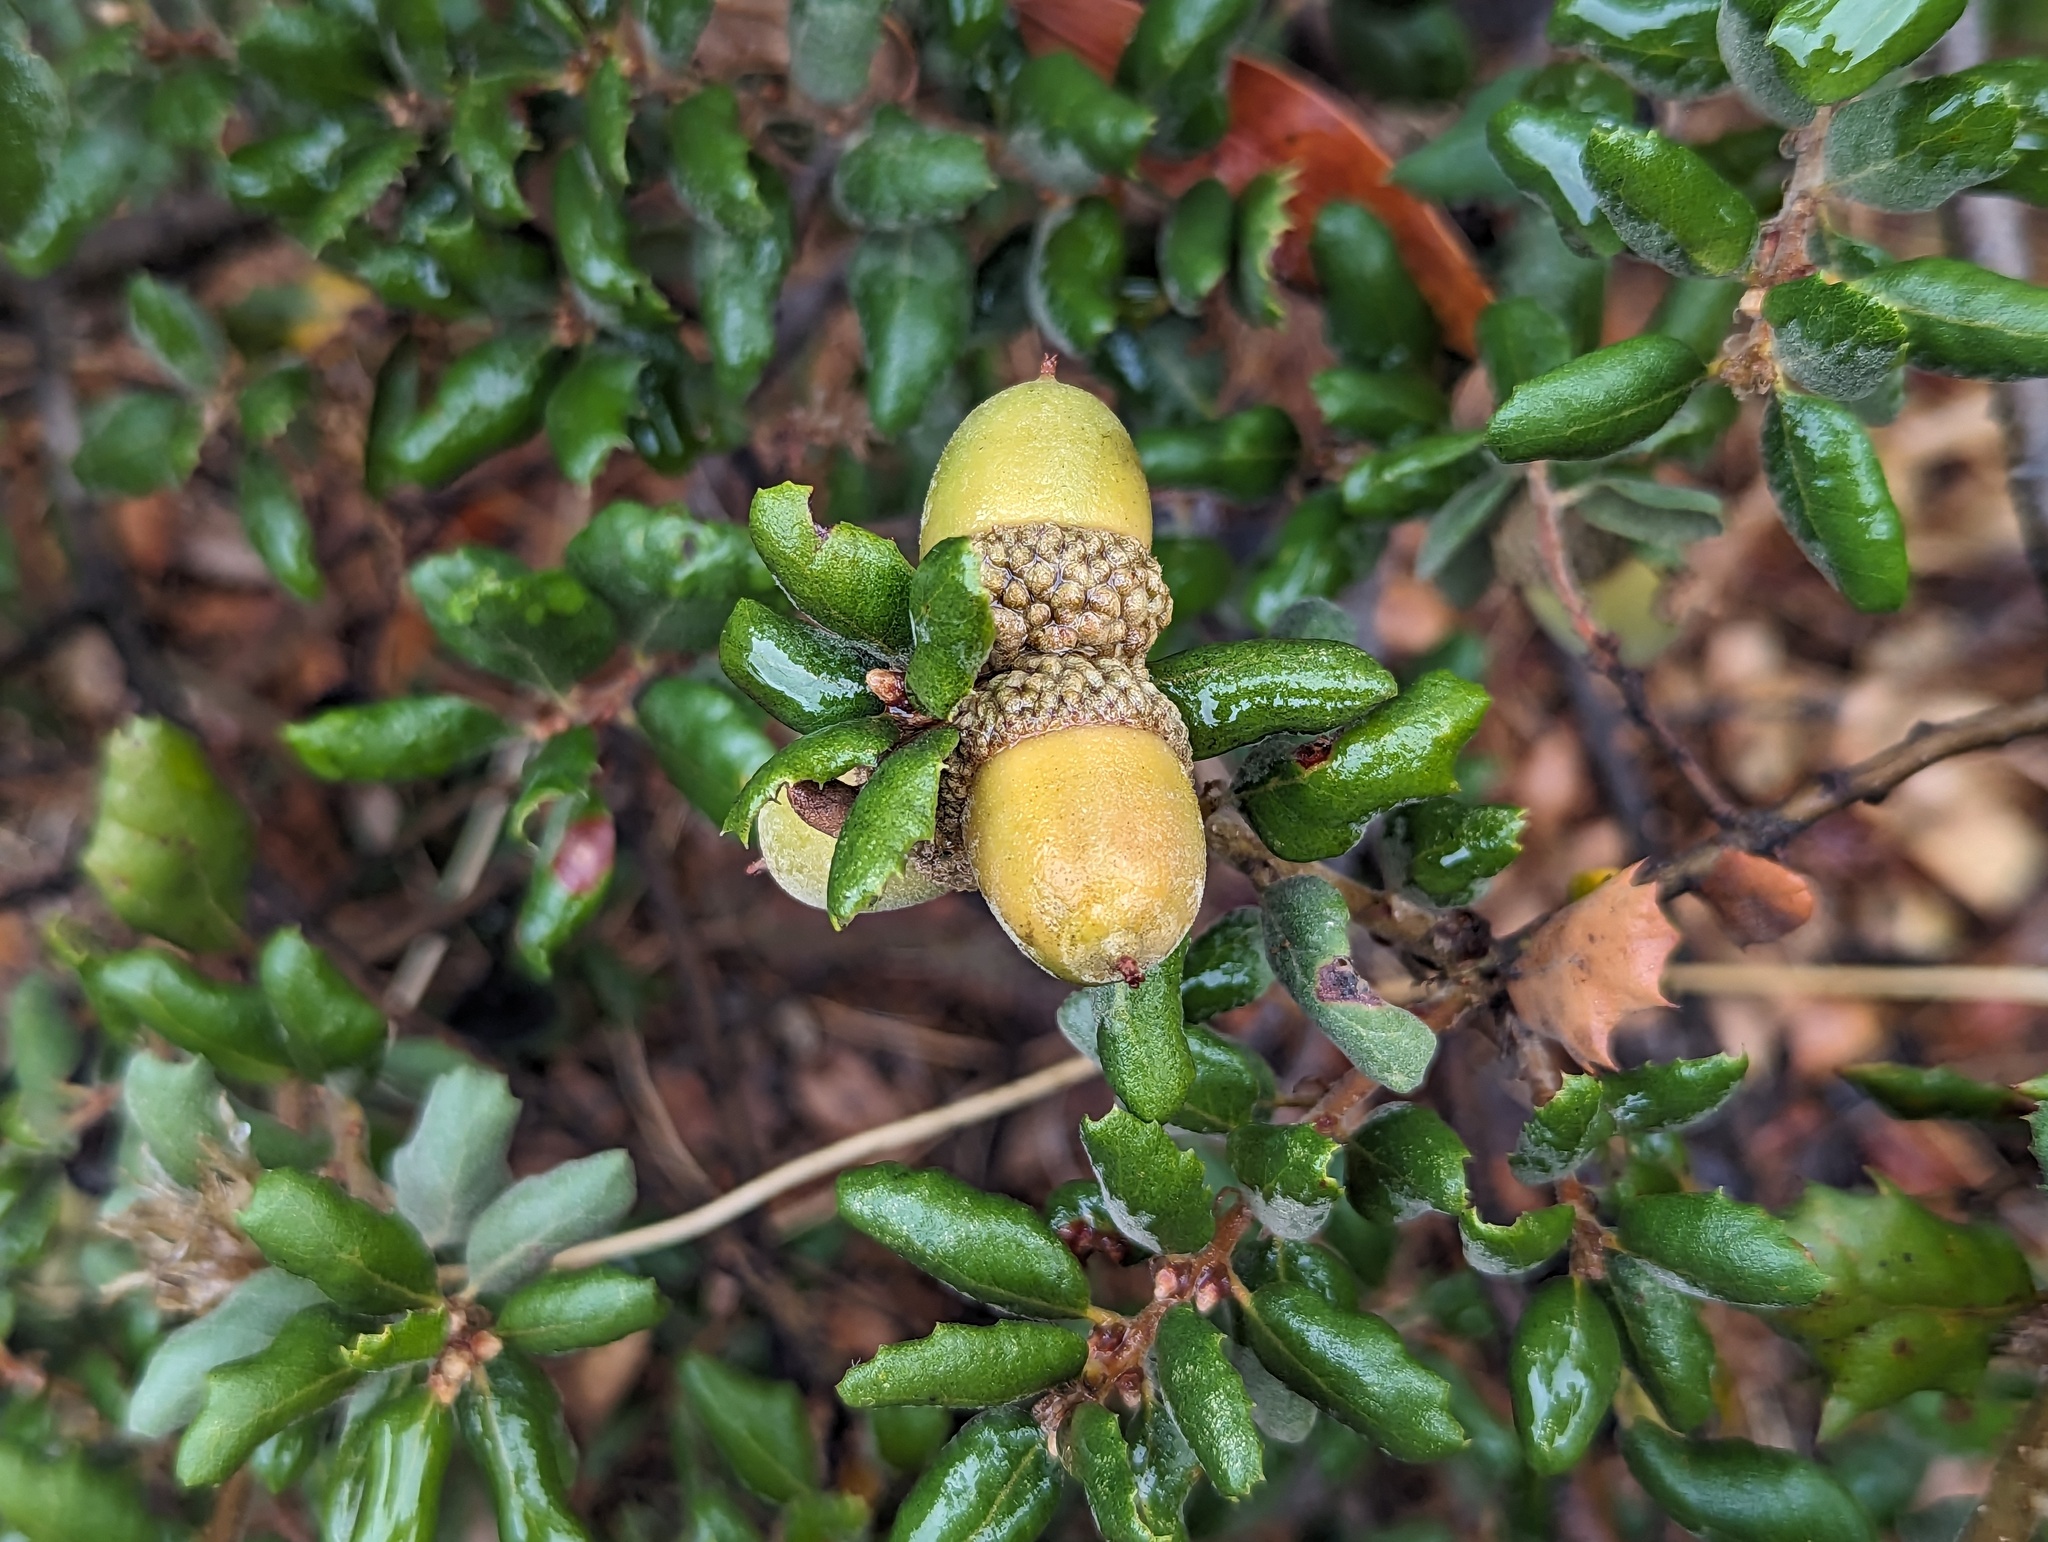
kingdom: Plantae
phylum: Tracheophyta
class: Magnoliopsida
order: Fagales
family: Fagaceae
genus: Quercus
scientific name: Quercus durata
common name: Leather oak
